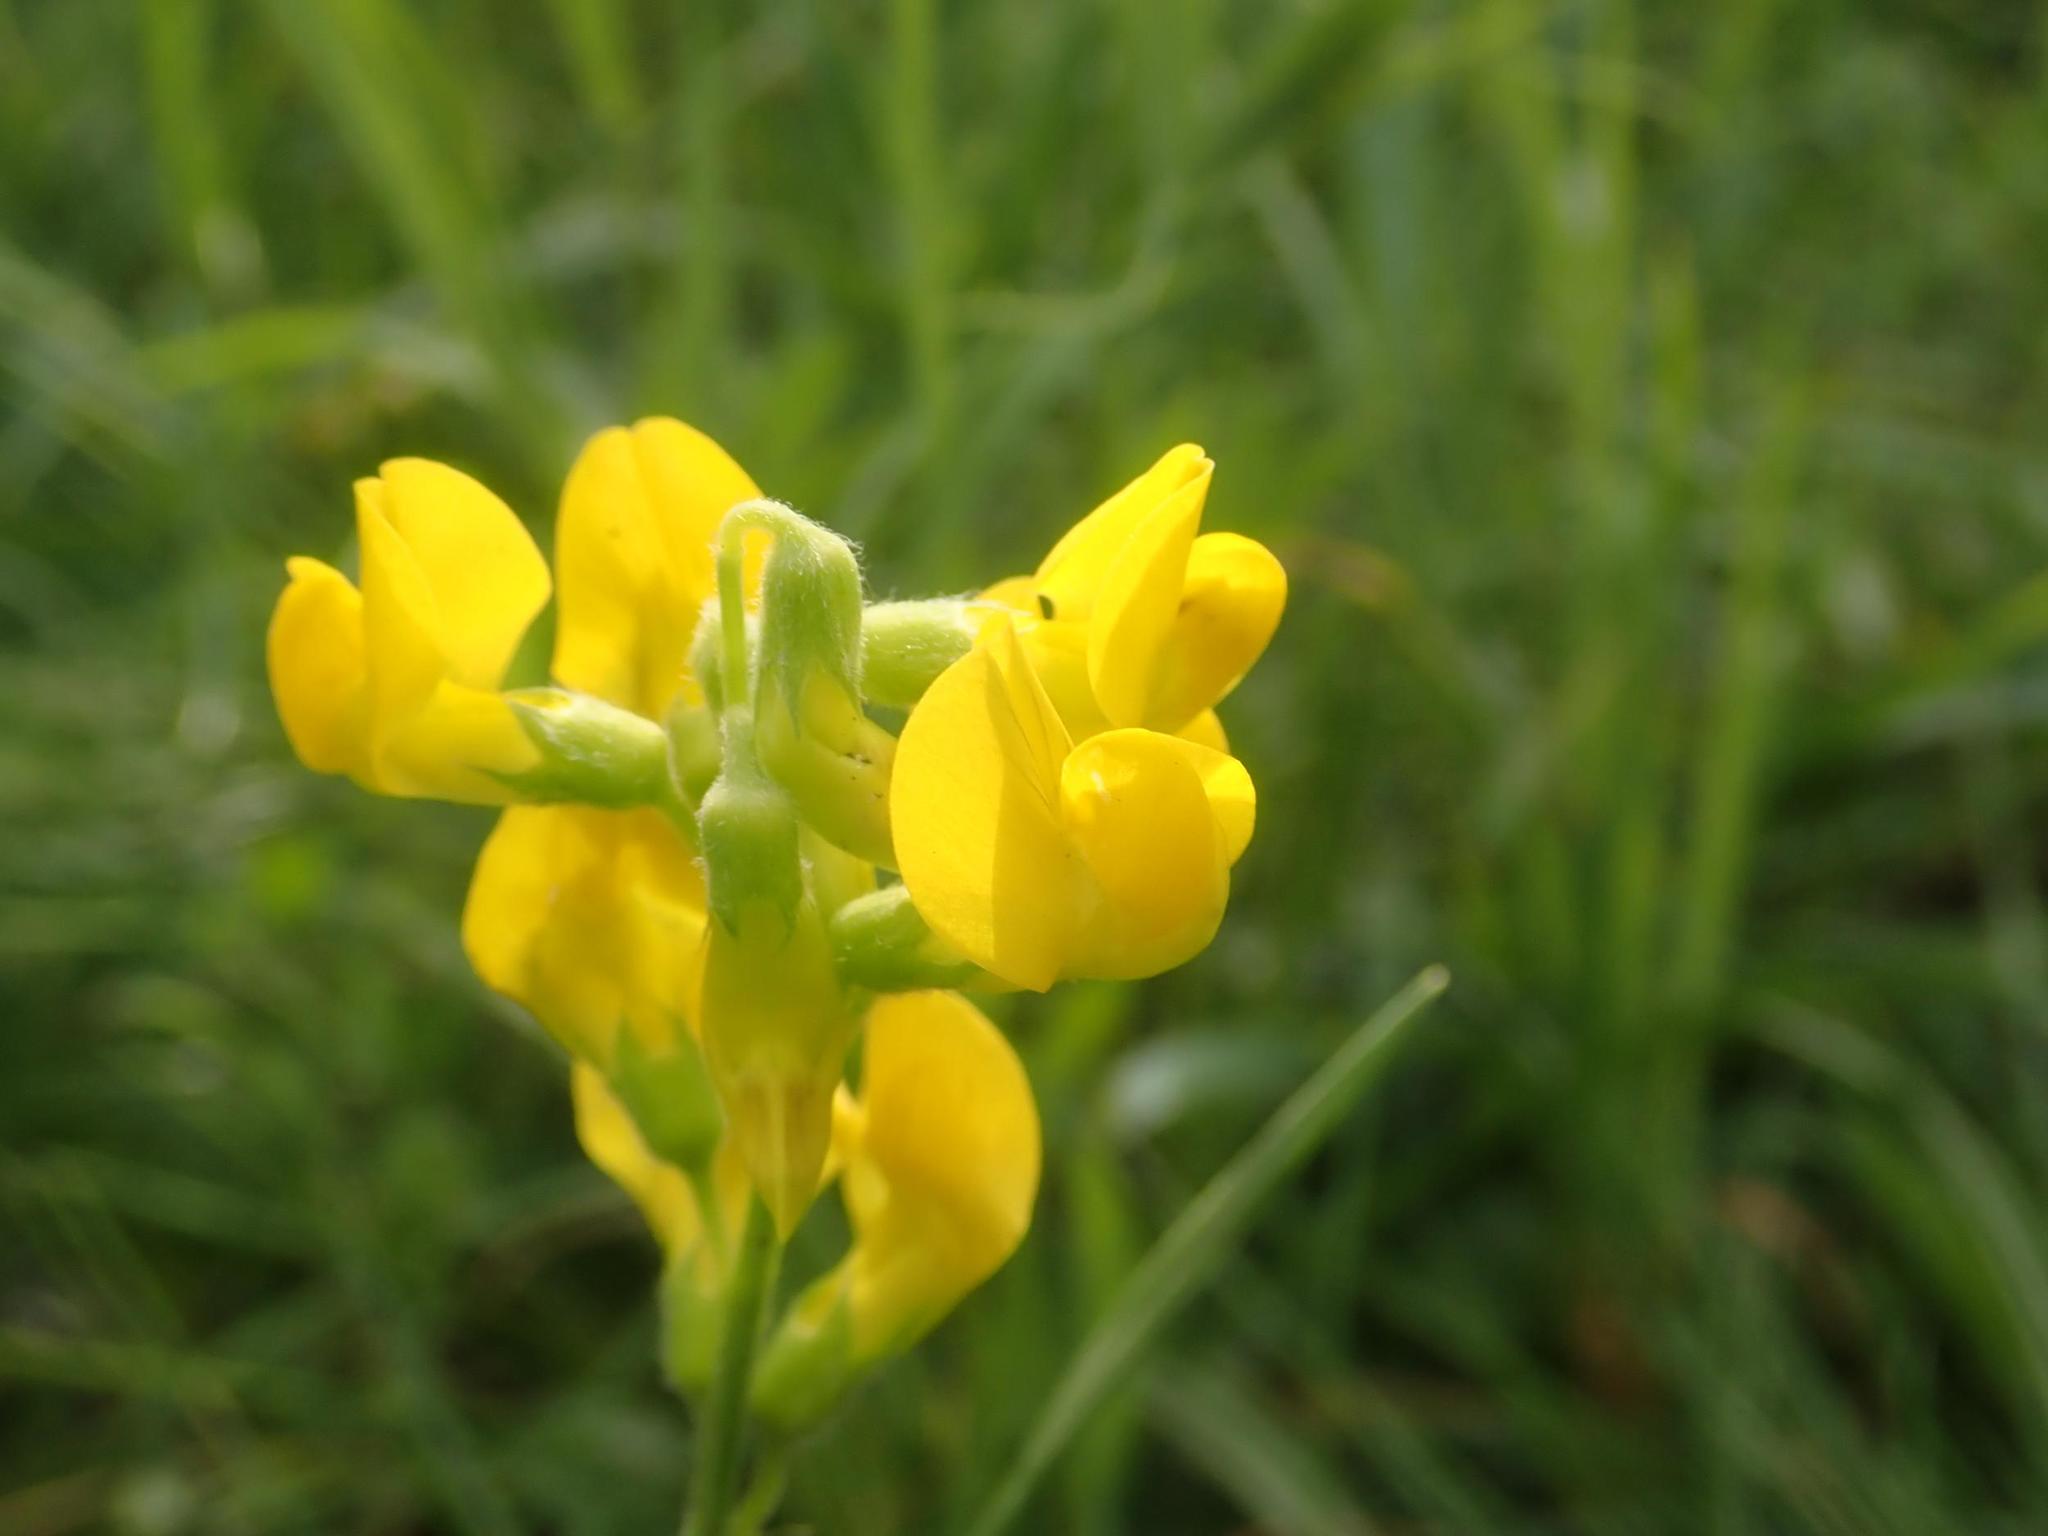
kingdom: Plantae
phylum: Tracheophyta
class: Magnoliopsida
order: Fabales
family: Fabaceae
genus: Lathyrus
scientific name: Lathyrus pratensis
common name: Meadow vetchling
